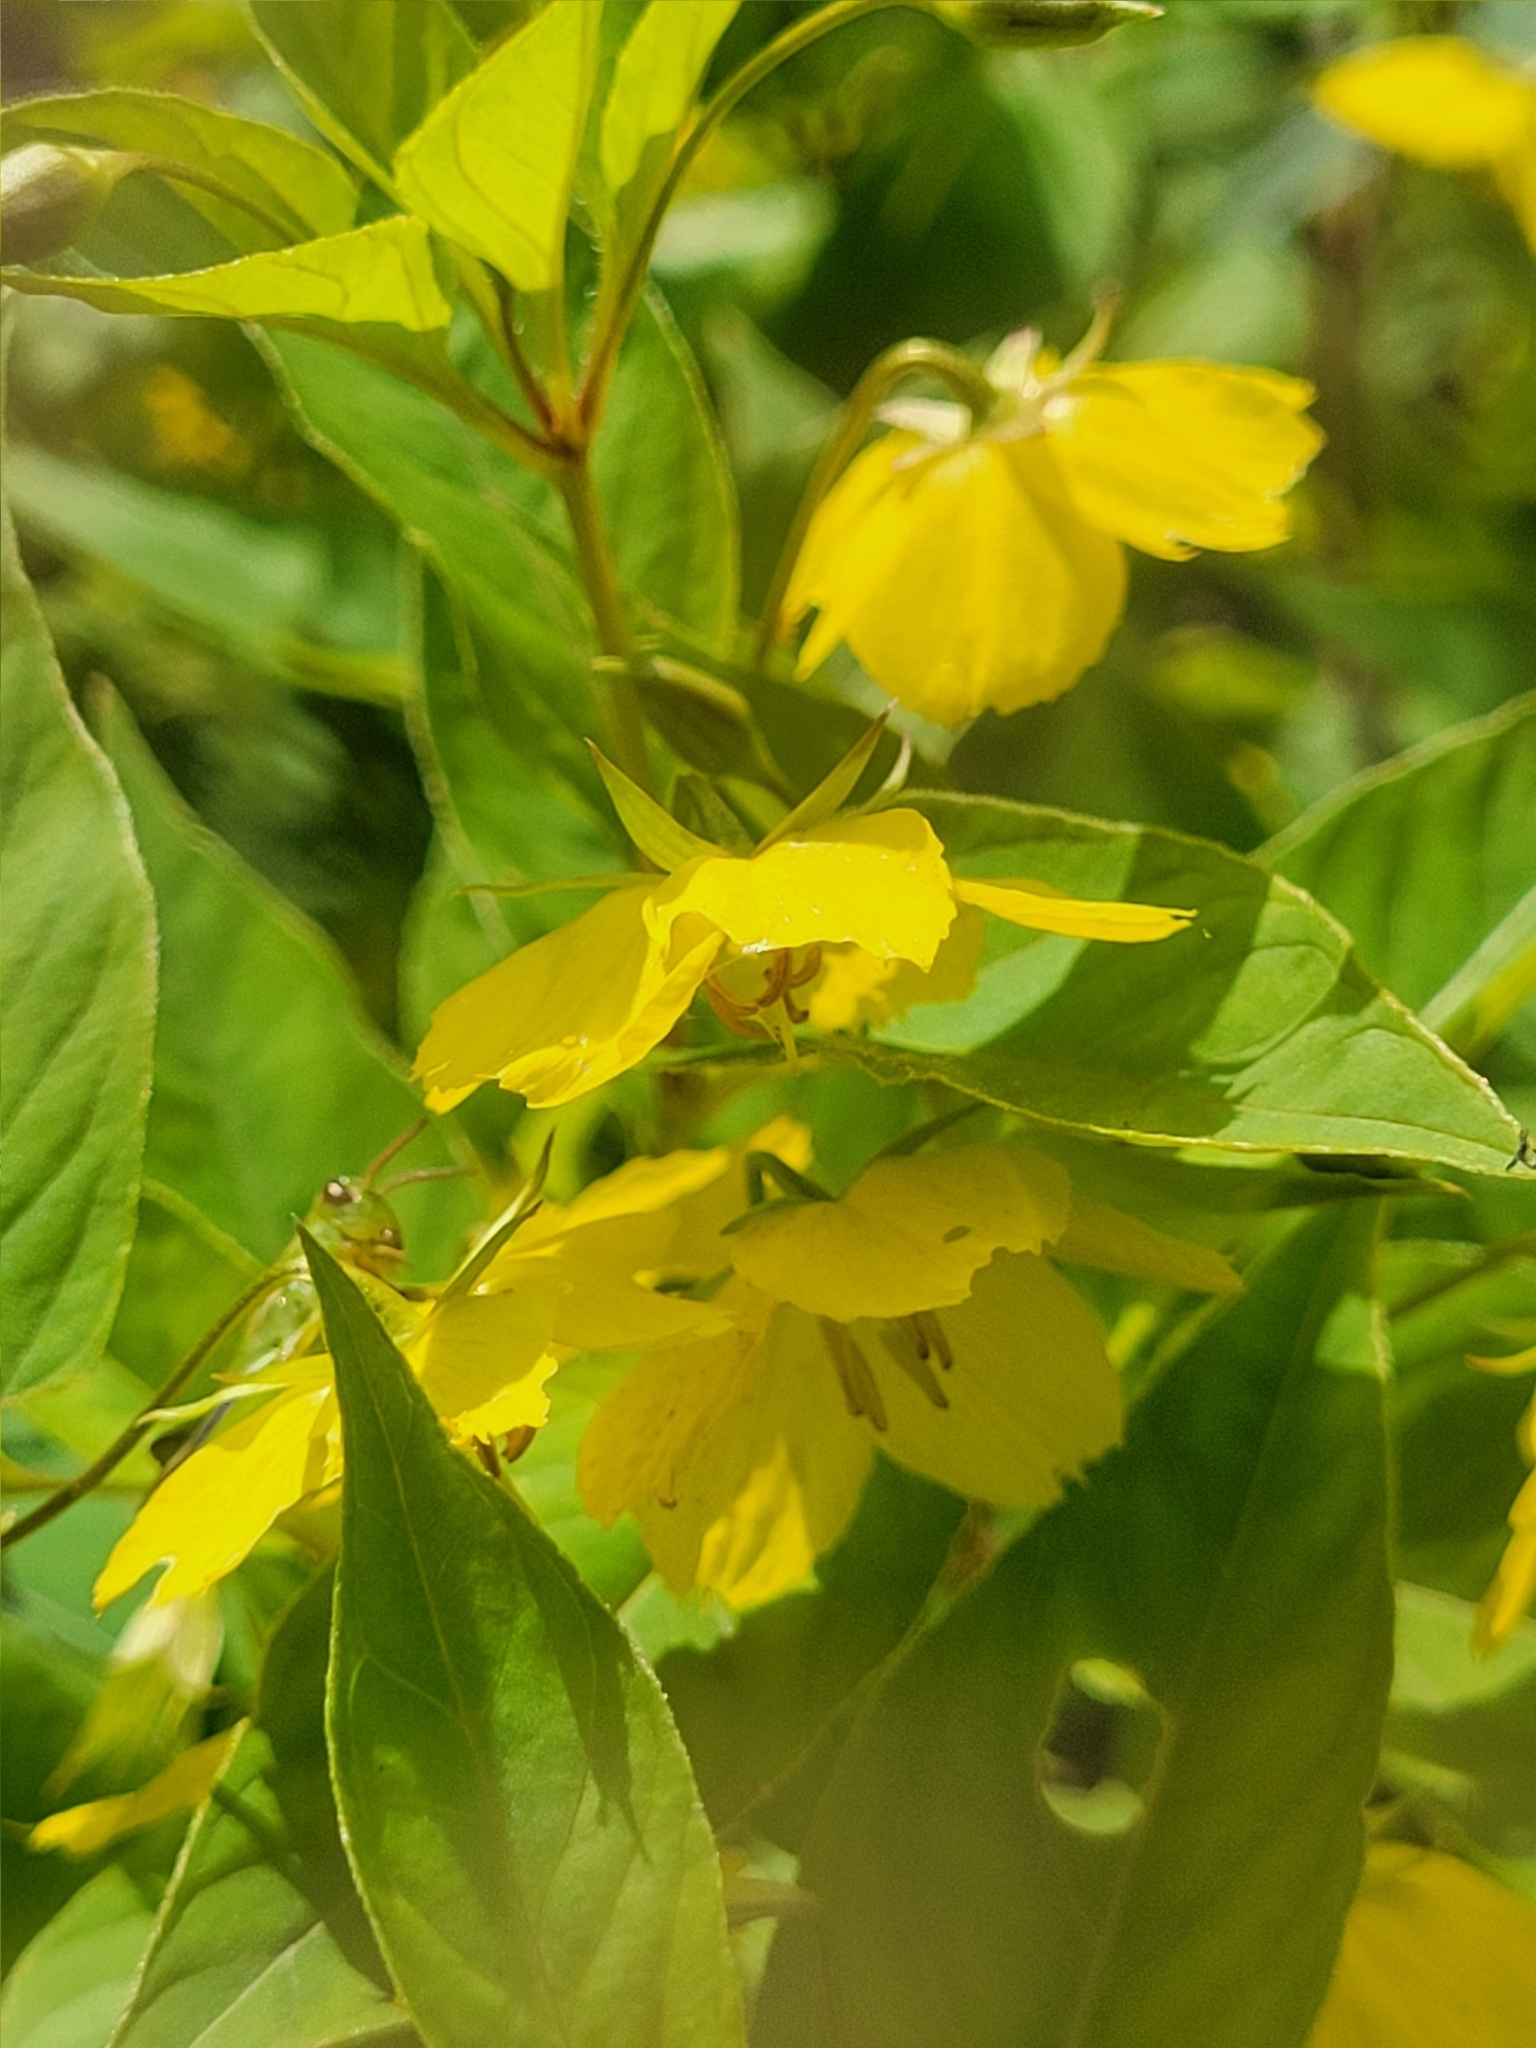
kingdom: Plantae
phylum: Tracheophyta
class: Magnoliopsida
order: Ericales
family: Primulaceae
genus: Lysimachia
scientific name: Lysimachia ciliata
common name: Fringed loosestrife
